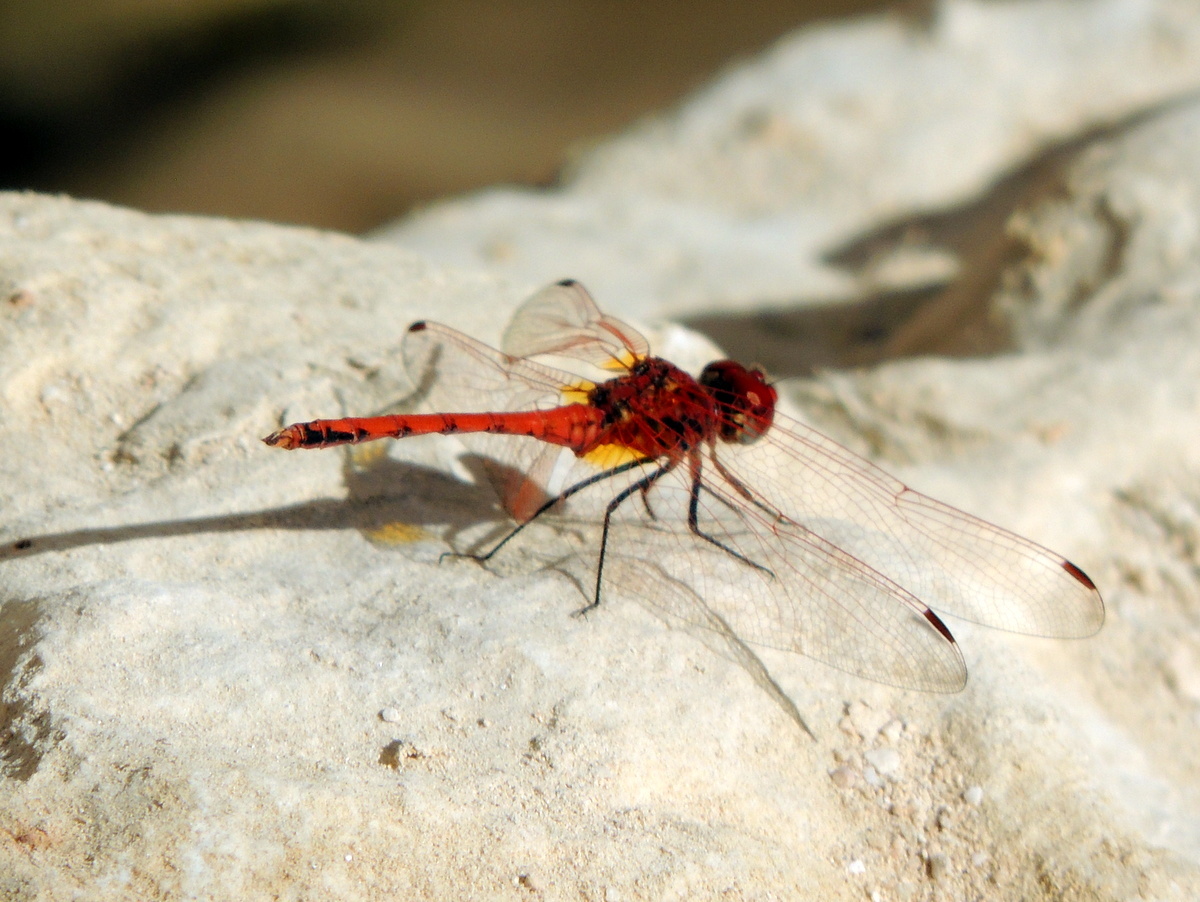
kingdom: Animalia
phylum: Arthropoda
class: Insecta
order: Odonata
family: Libellulidae
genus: Trithemis
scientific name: Trithemis arteriosa
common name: Red-veined dropwing
